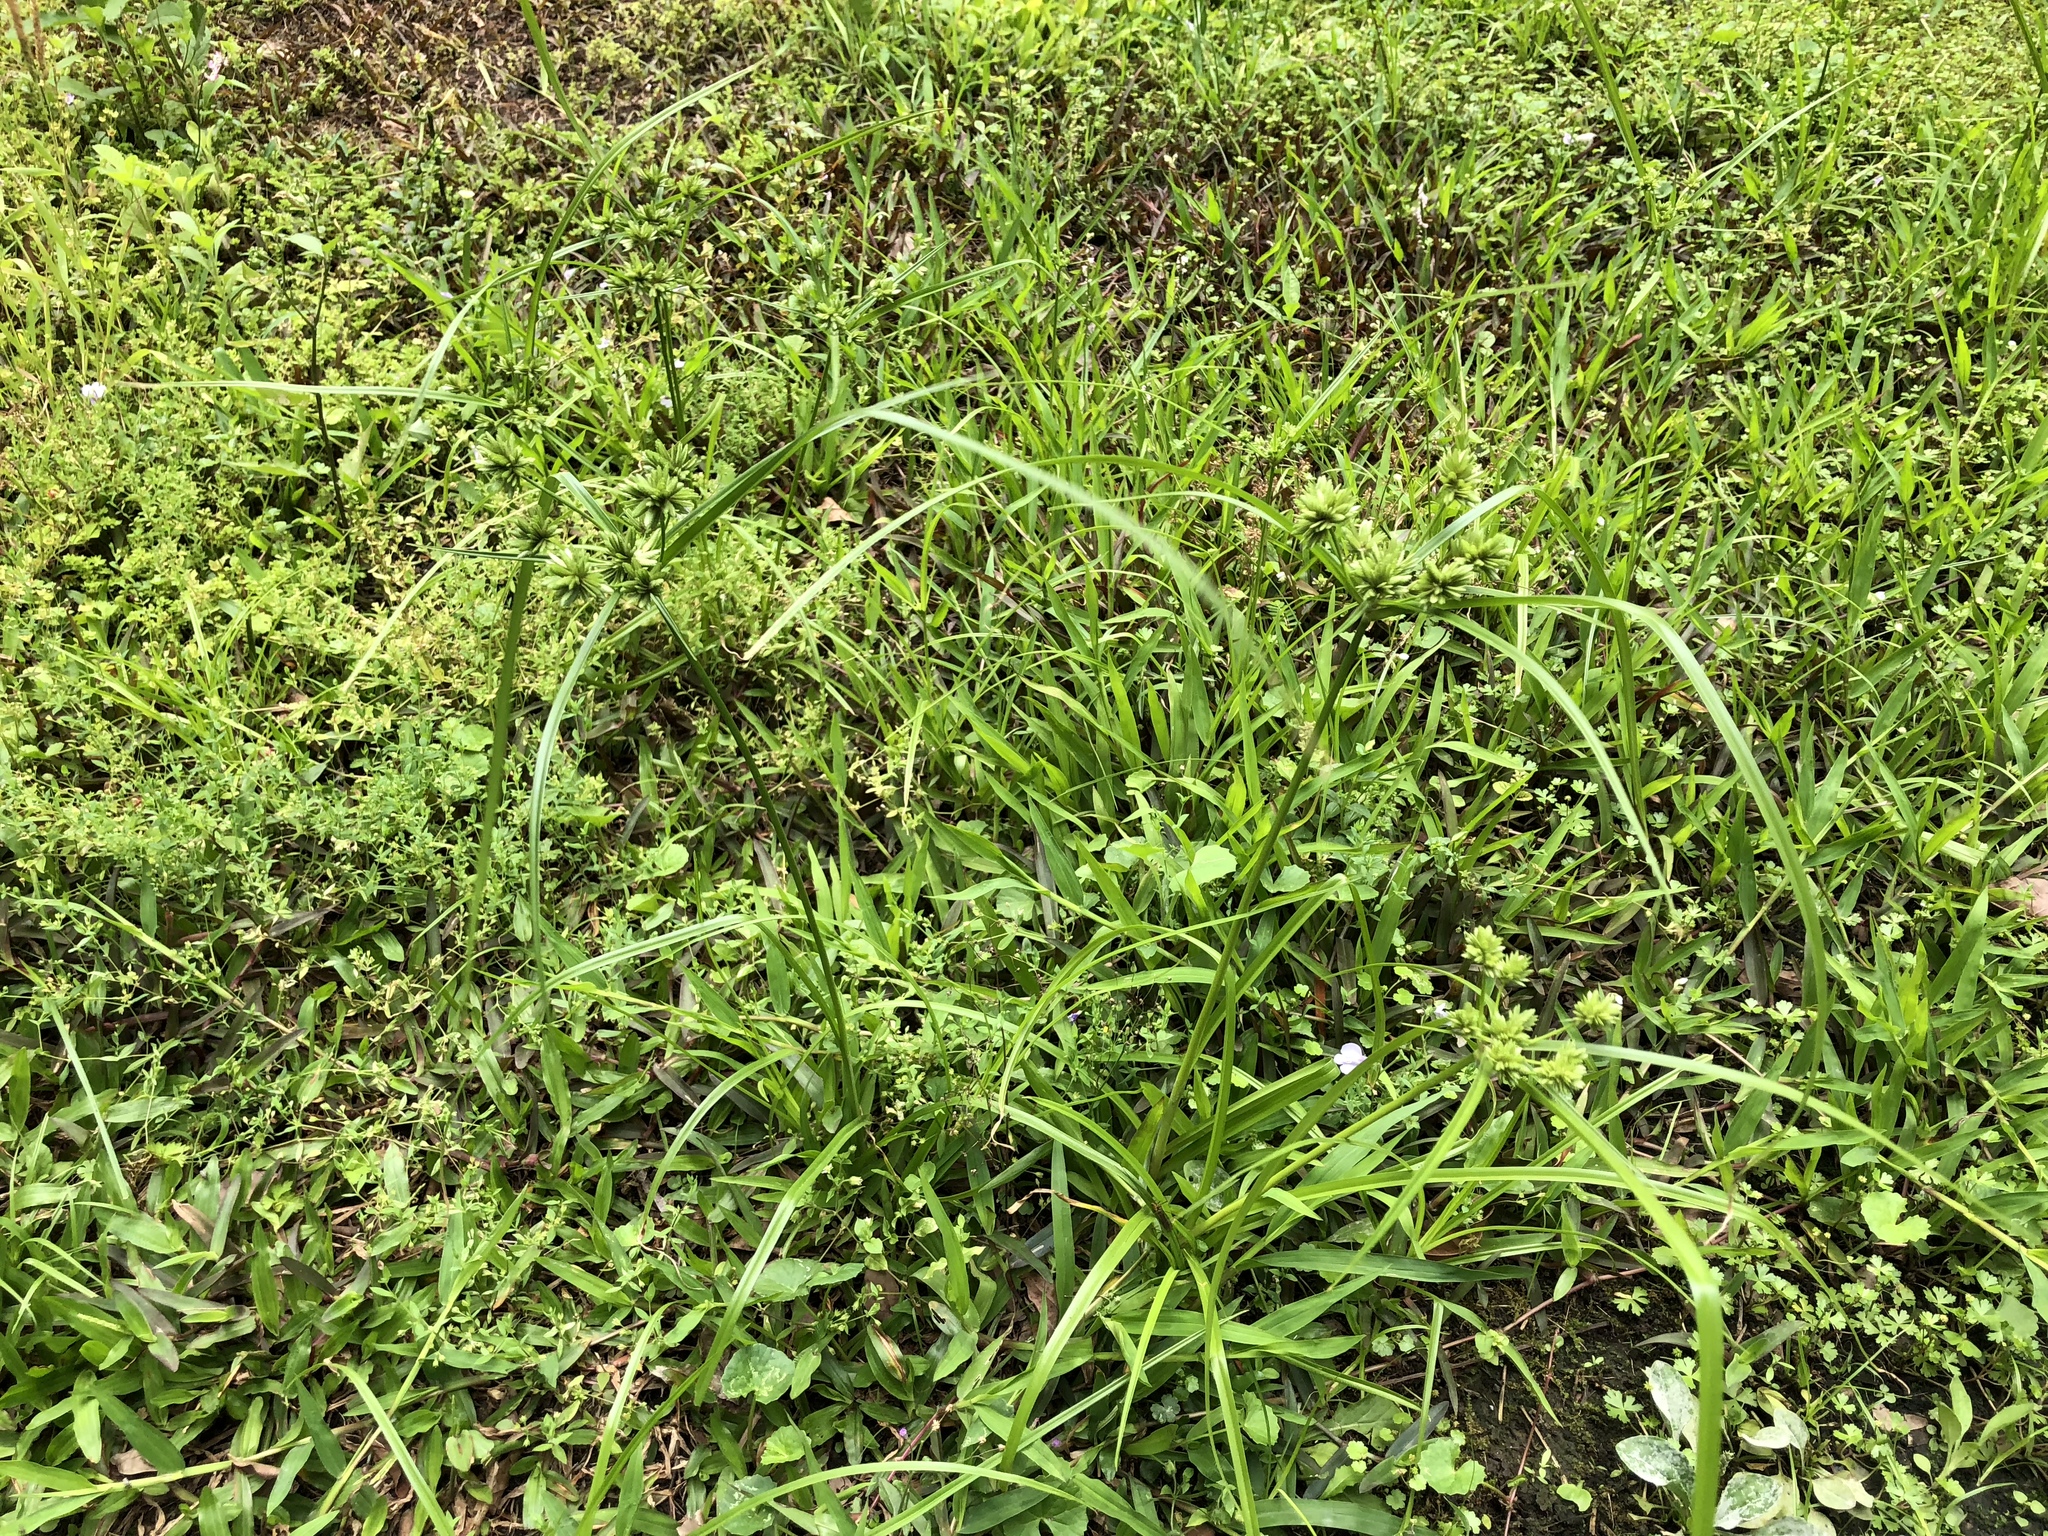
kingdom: Plantae
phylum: Tracheophyta
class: Liliopsida
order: Poales
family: Cyperaceae
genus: Cyperus
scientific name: Cyperus eragrostis
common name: Tall flatsedge
